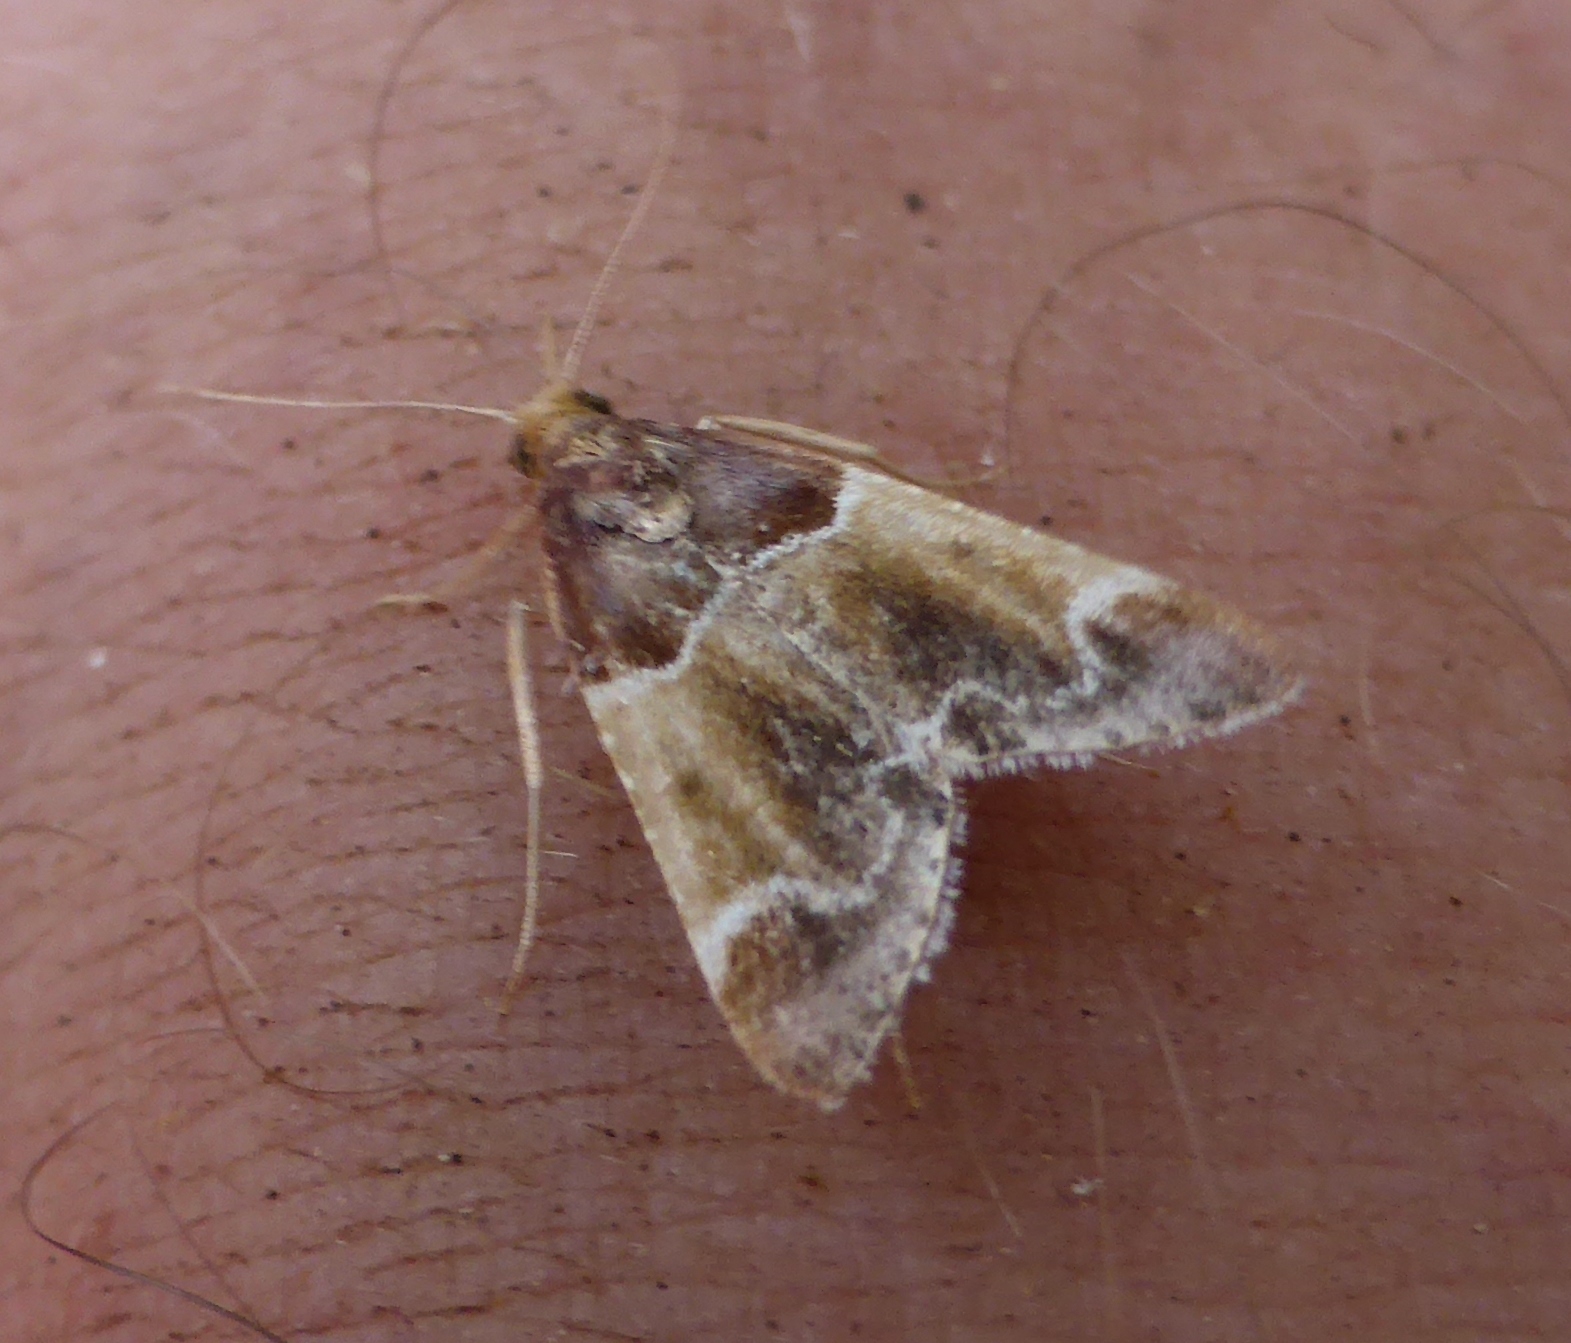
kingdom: Animalia
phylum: Arthropoda
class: Insecta
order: Lepidoptera
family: Pyralidae
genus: Pyralis
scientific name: Pyralis farinalis
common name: Meal moth
